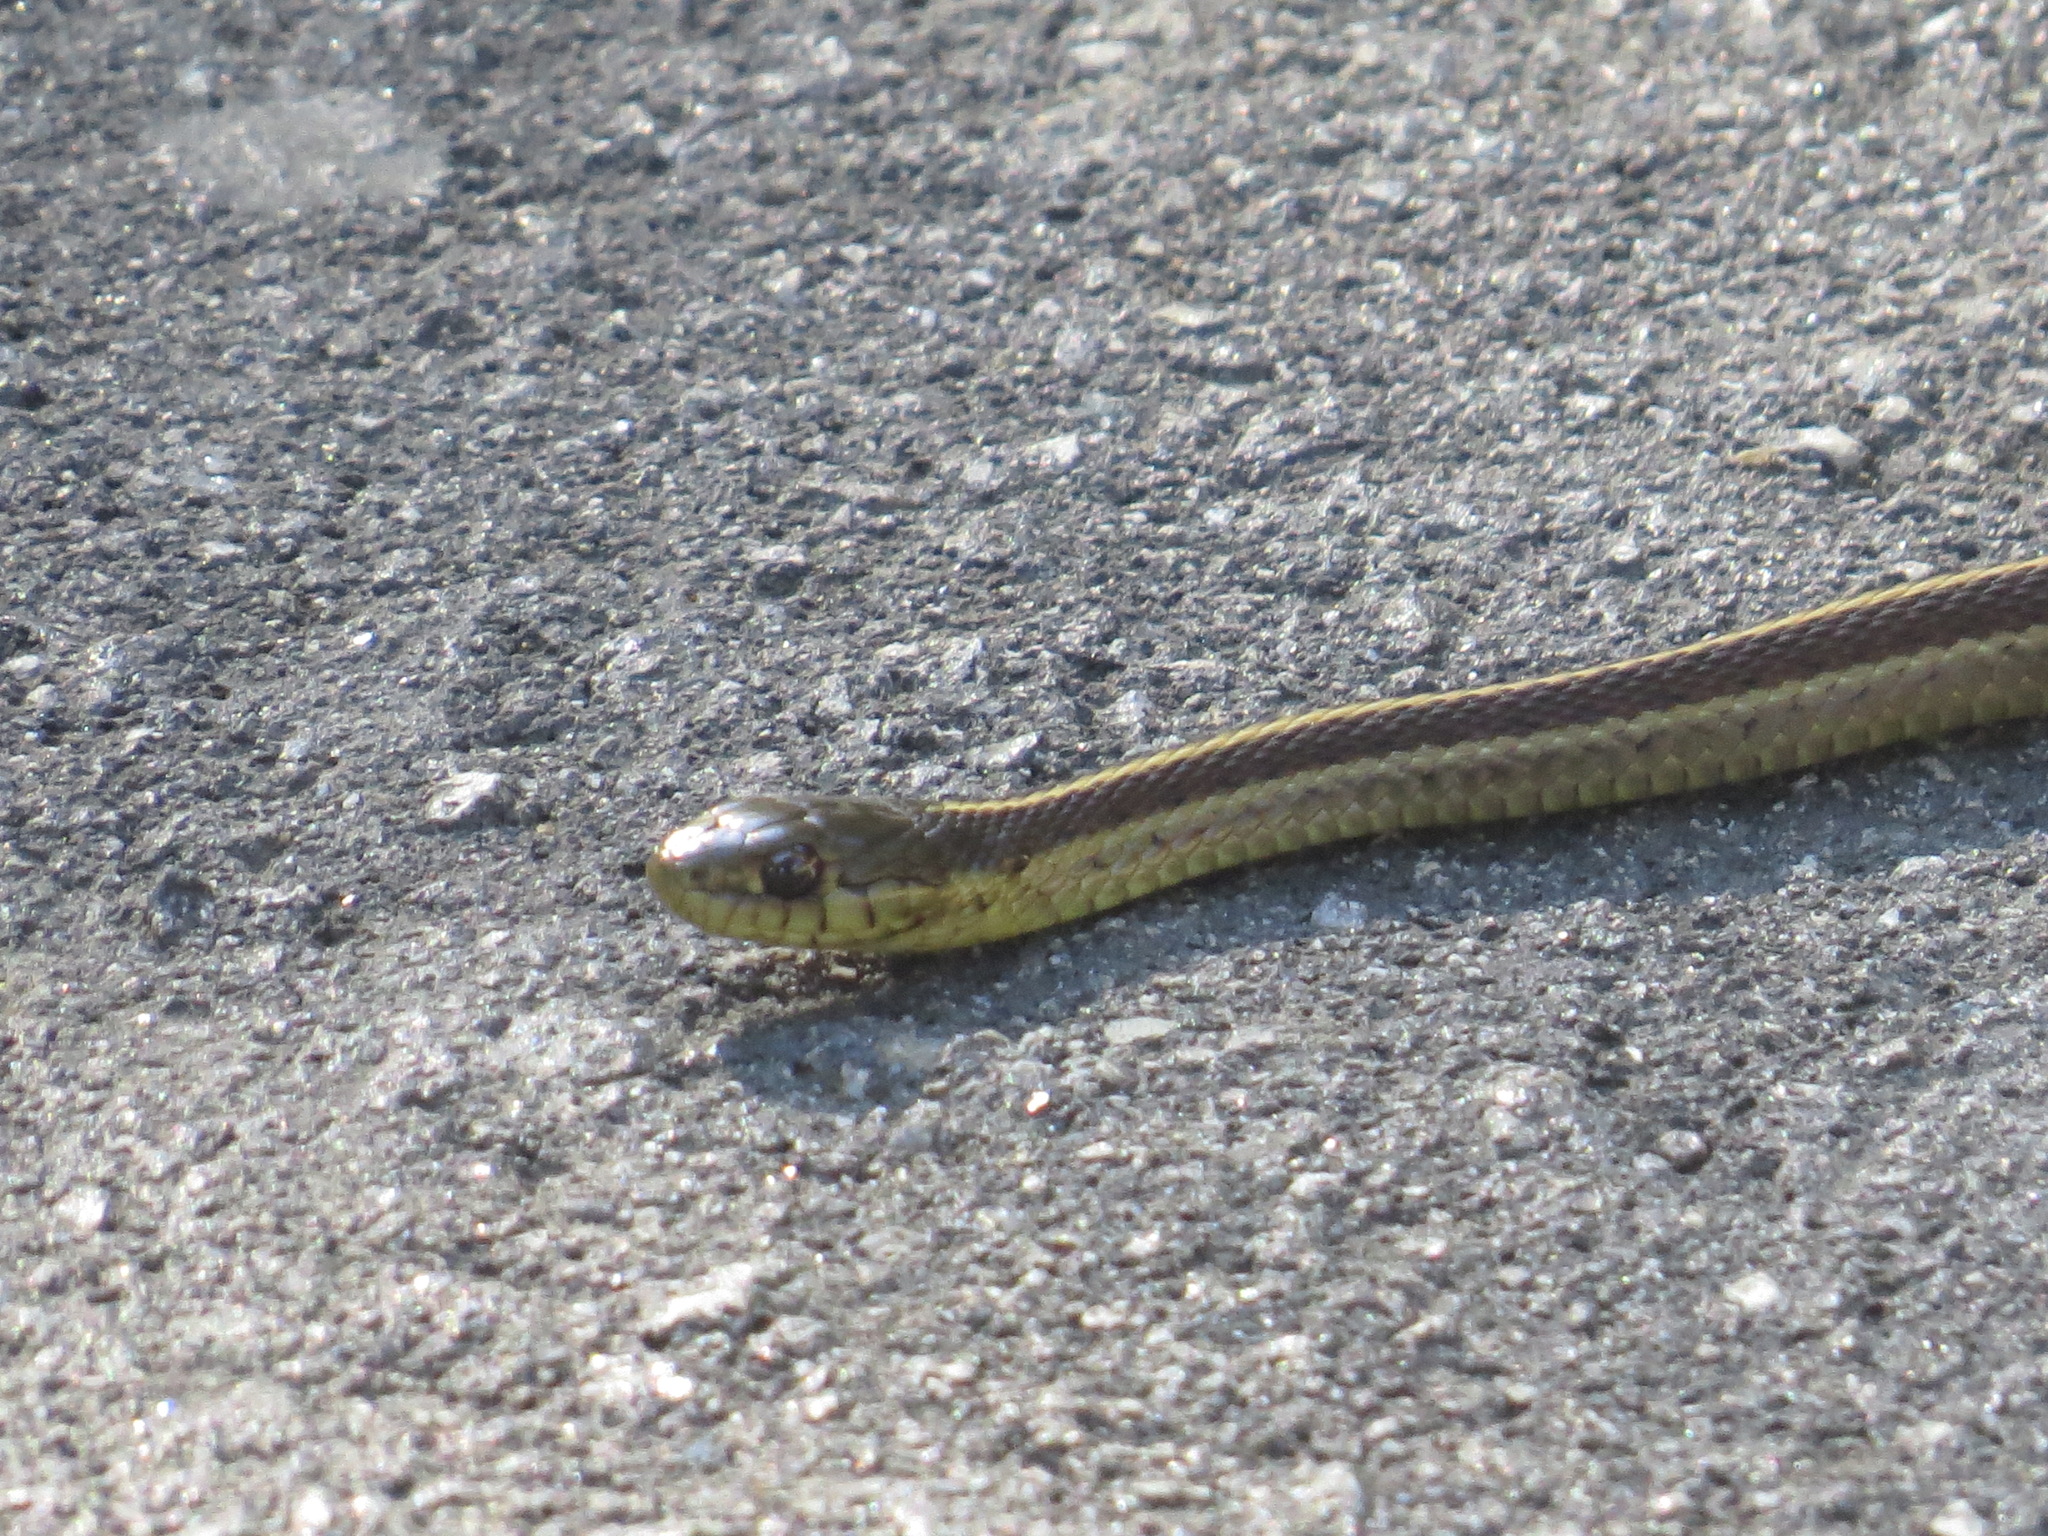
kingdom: Animalia
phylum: Chordata
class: Squamata
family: Colubridae
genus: Thamnophis
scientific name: Thamnophis elegans
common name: Western terrestrial garter snake
